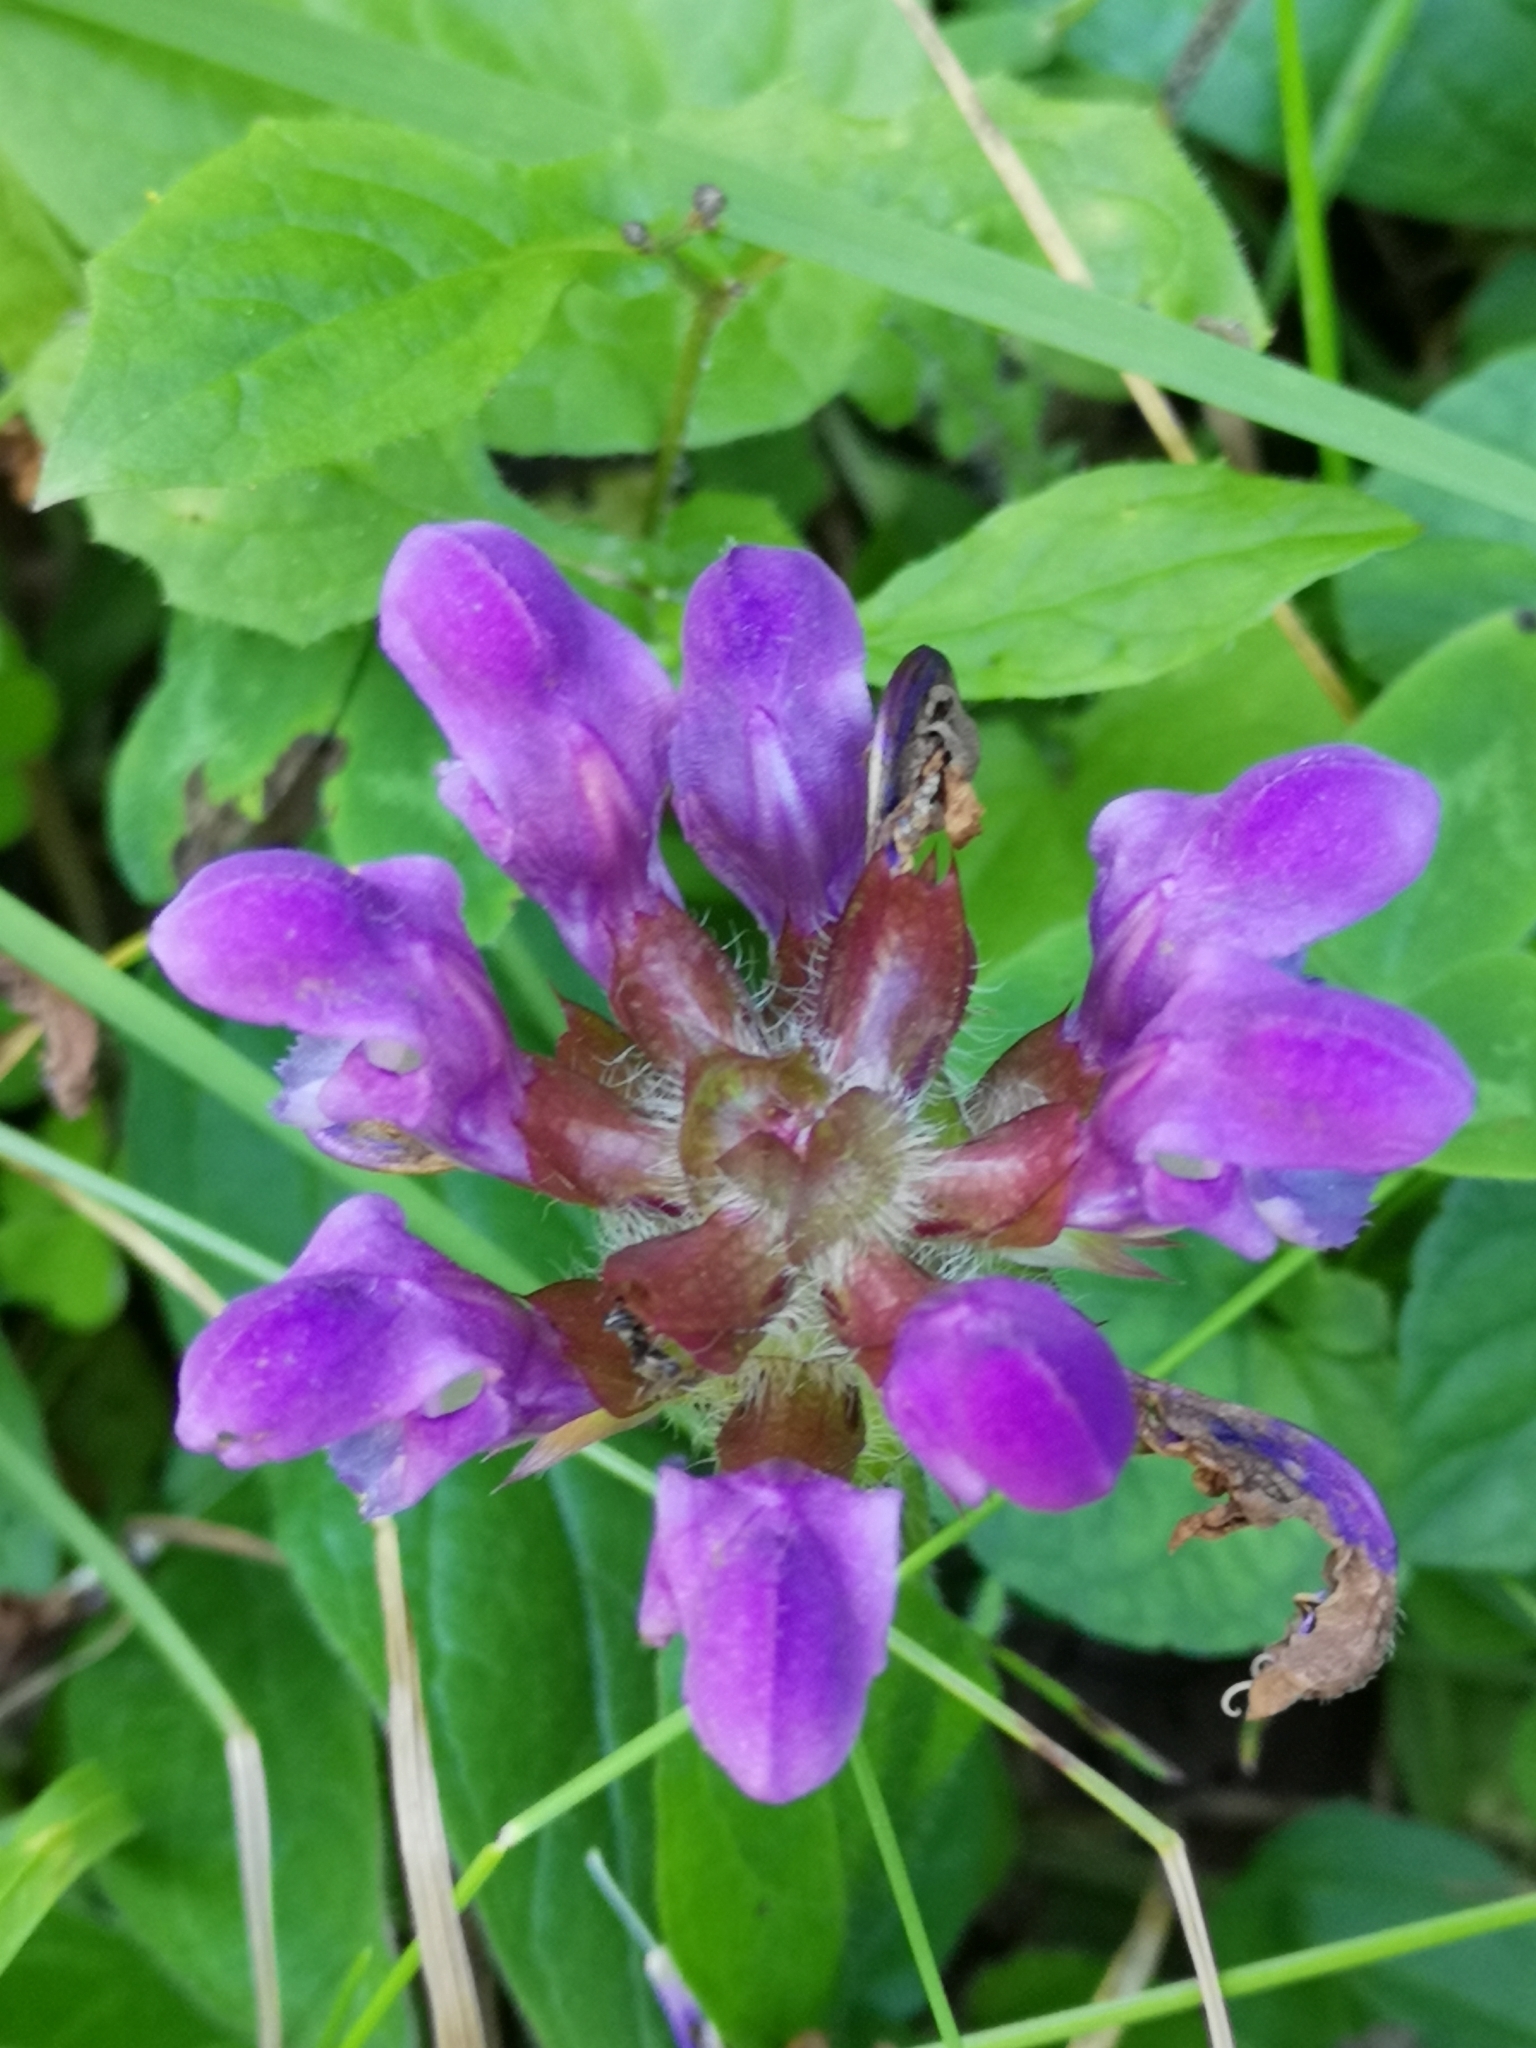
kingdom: Plantae
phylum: Tracheophyta
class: Magnoliopsida
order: Lamiales
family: Lamiaceae
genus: Prunella
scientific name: Prunella grandiflora
